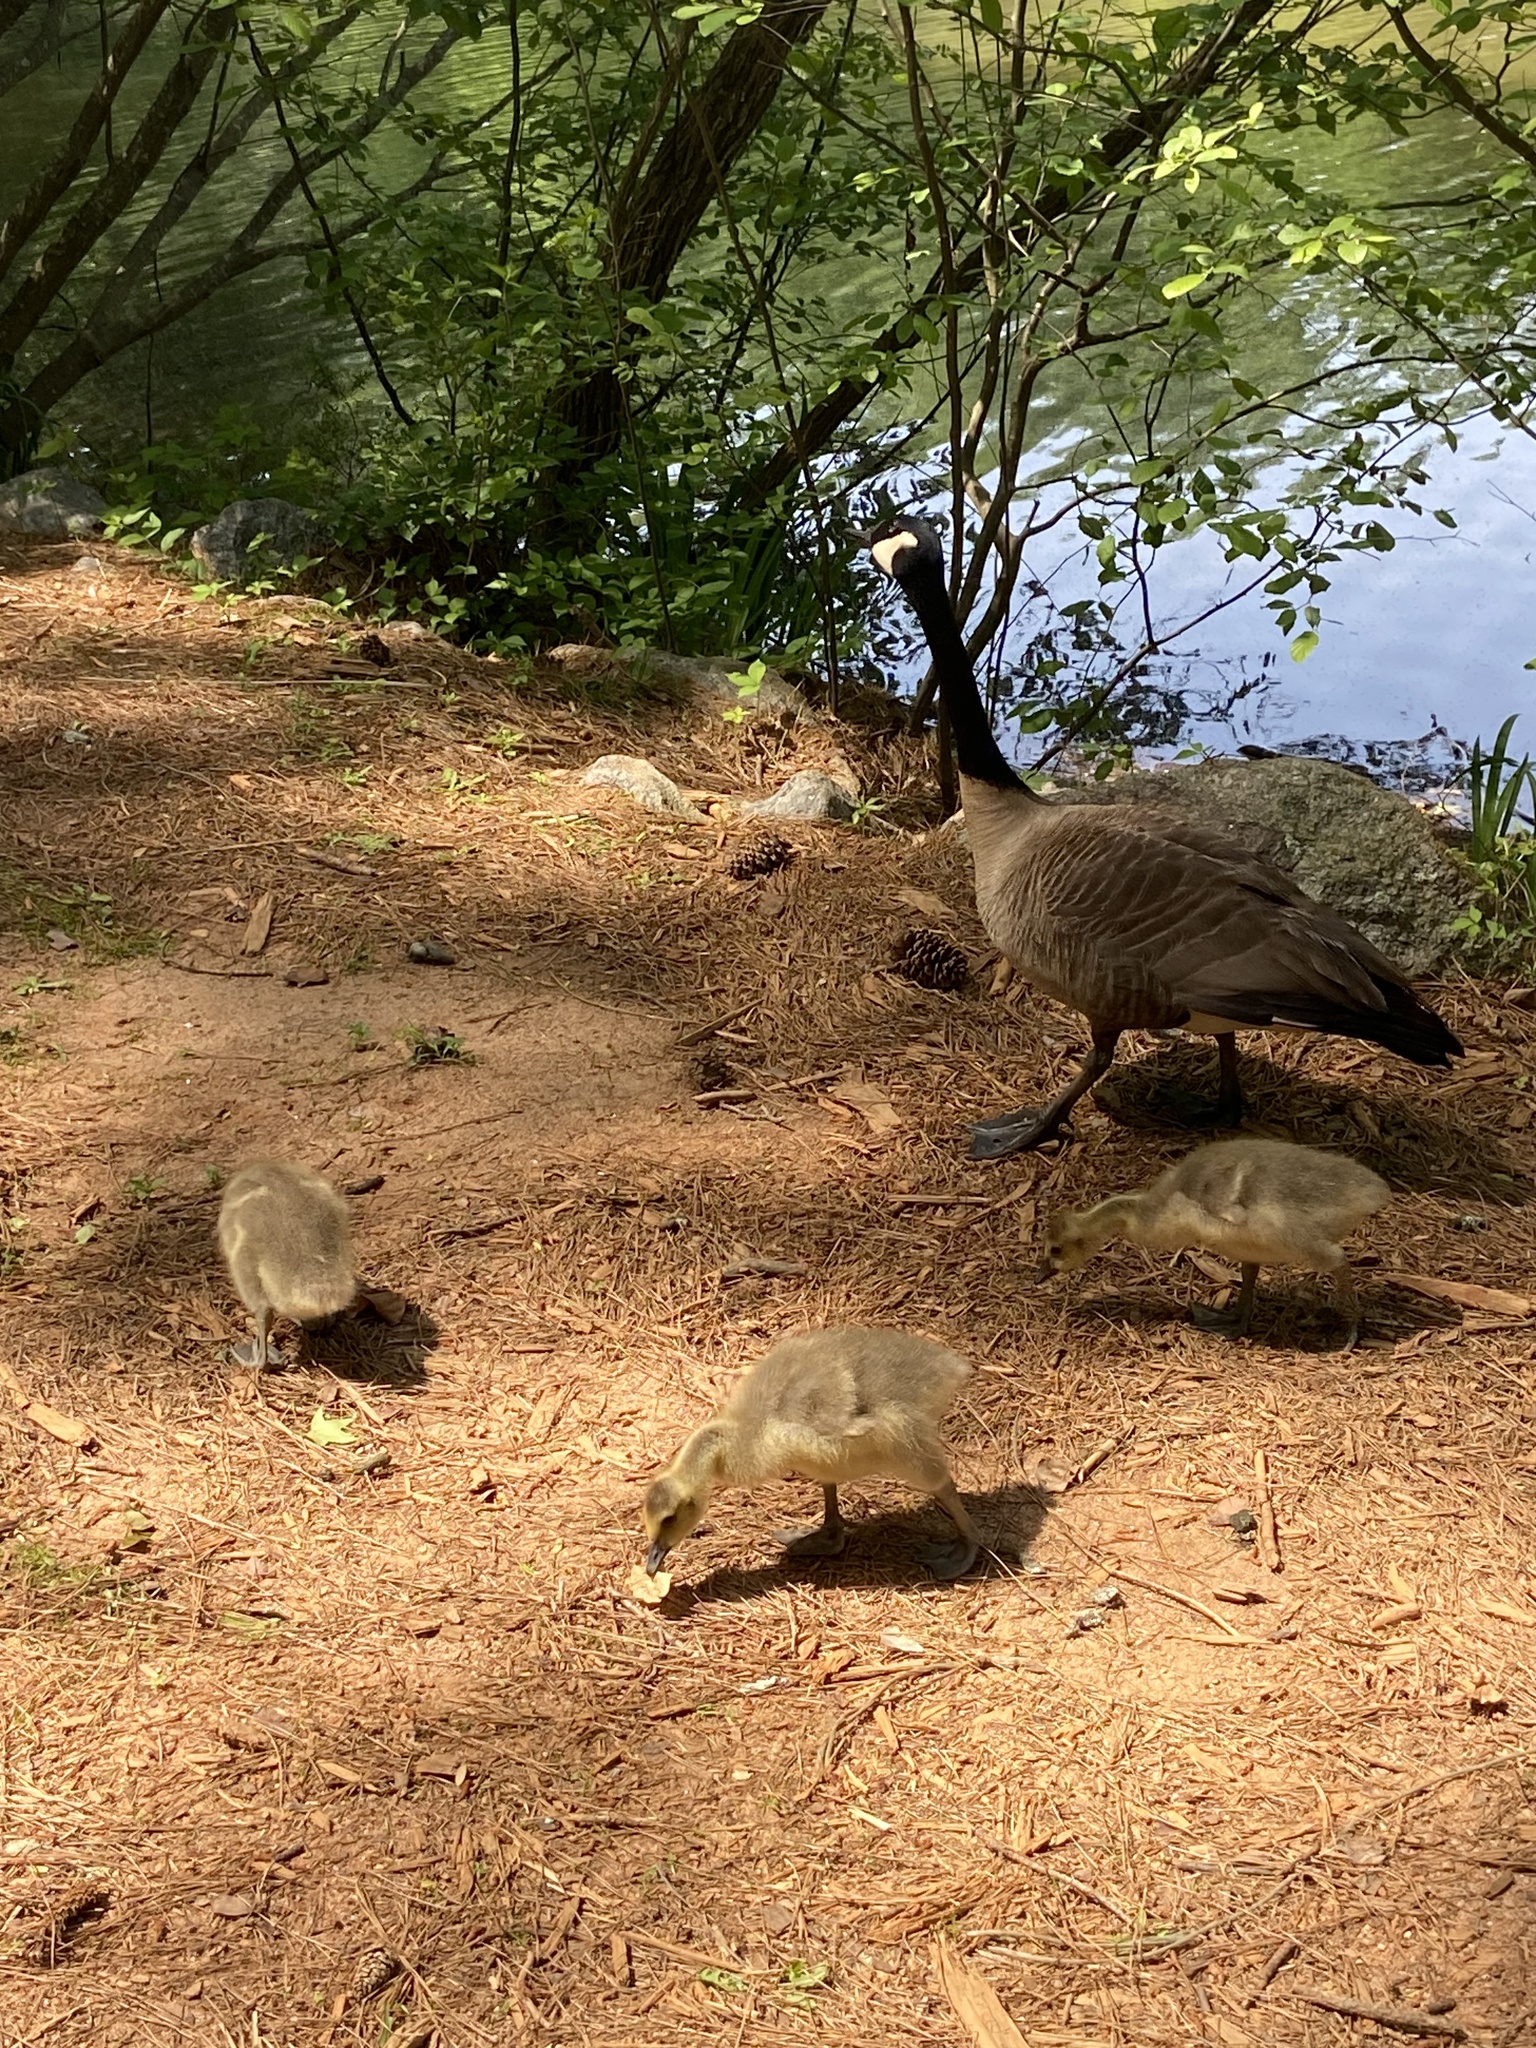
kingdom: Animalia
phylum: Chordata
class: Aves
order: Anseriformes
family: Anatidae
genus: Branta
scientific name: Branta canadensis
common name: Canada goose
